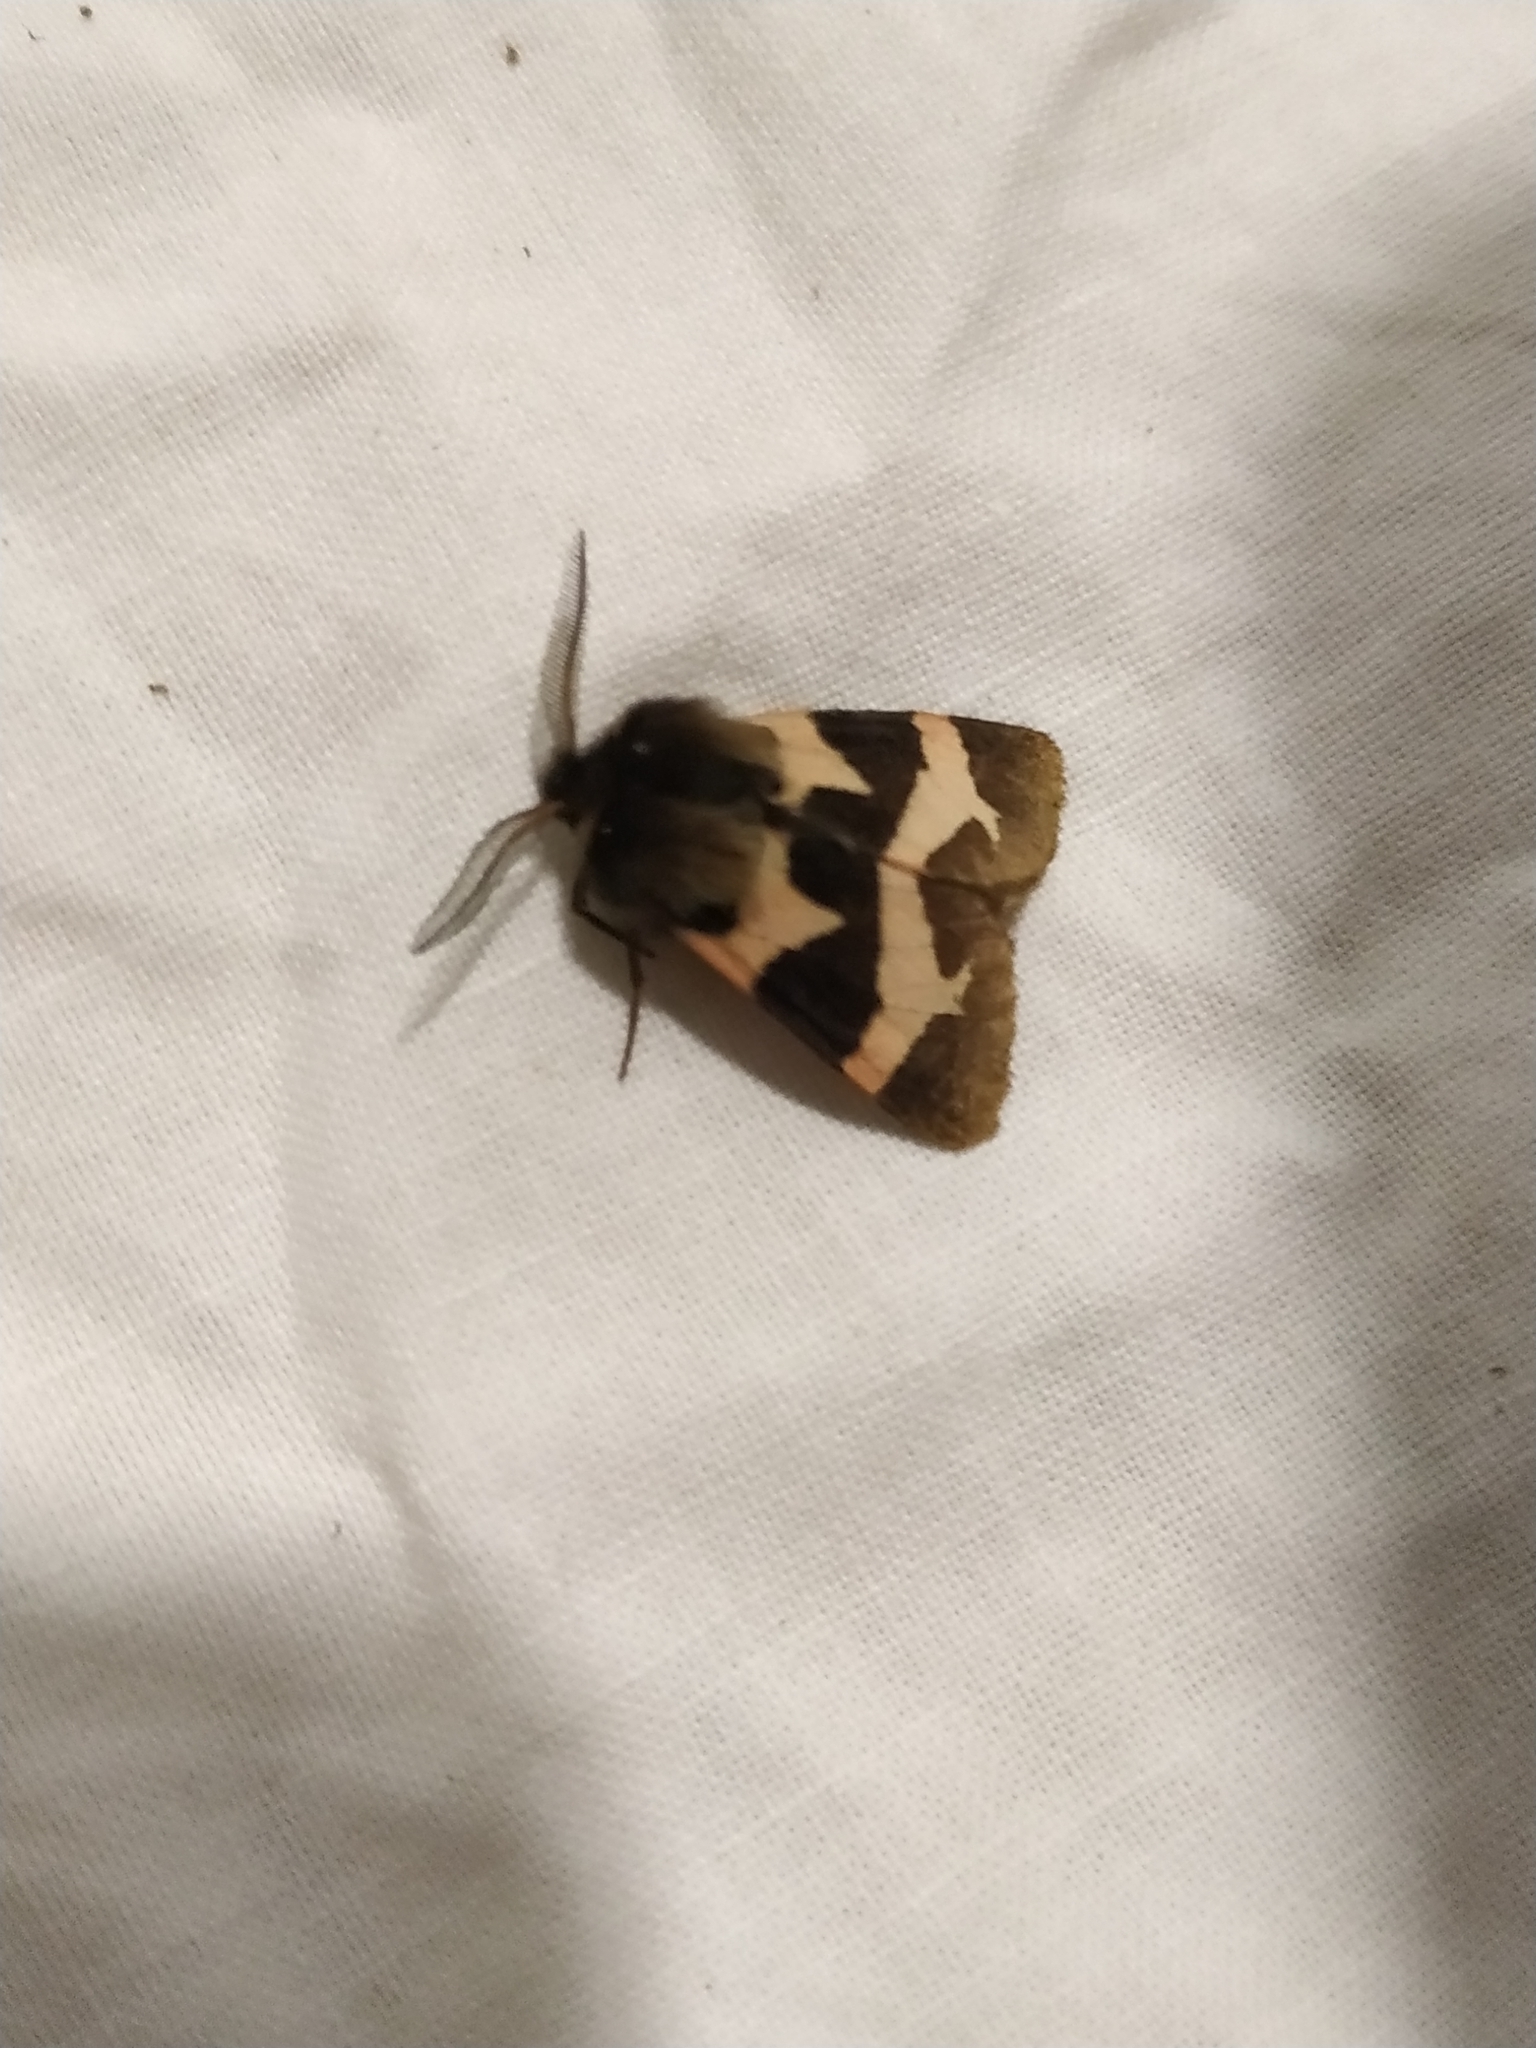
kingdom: Animalia
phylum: Arthropoda
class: Insecta
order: Lepidoptera
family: Erebidae
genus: Watsonarctia
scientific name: Watsonarctia deserta
